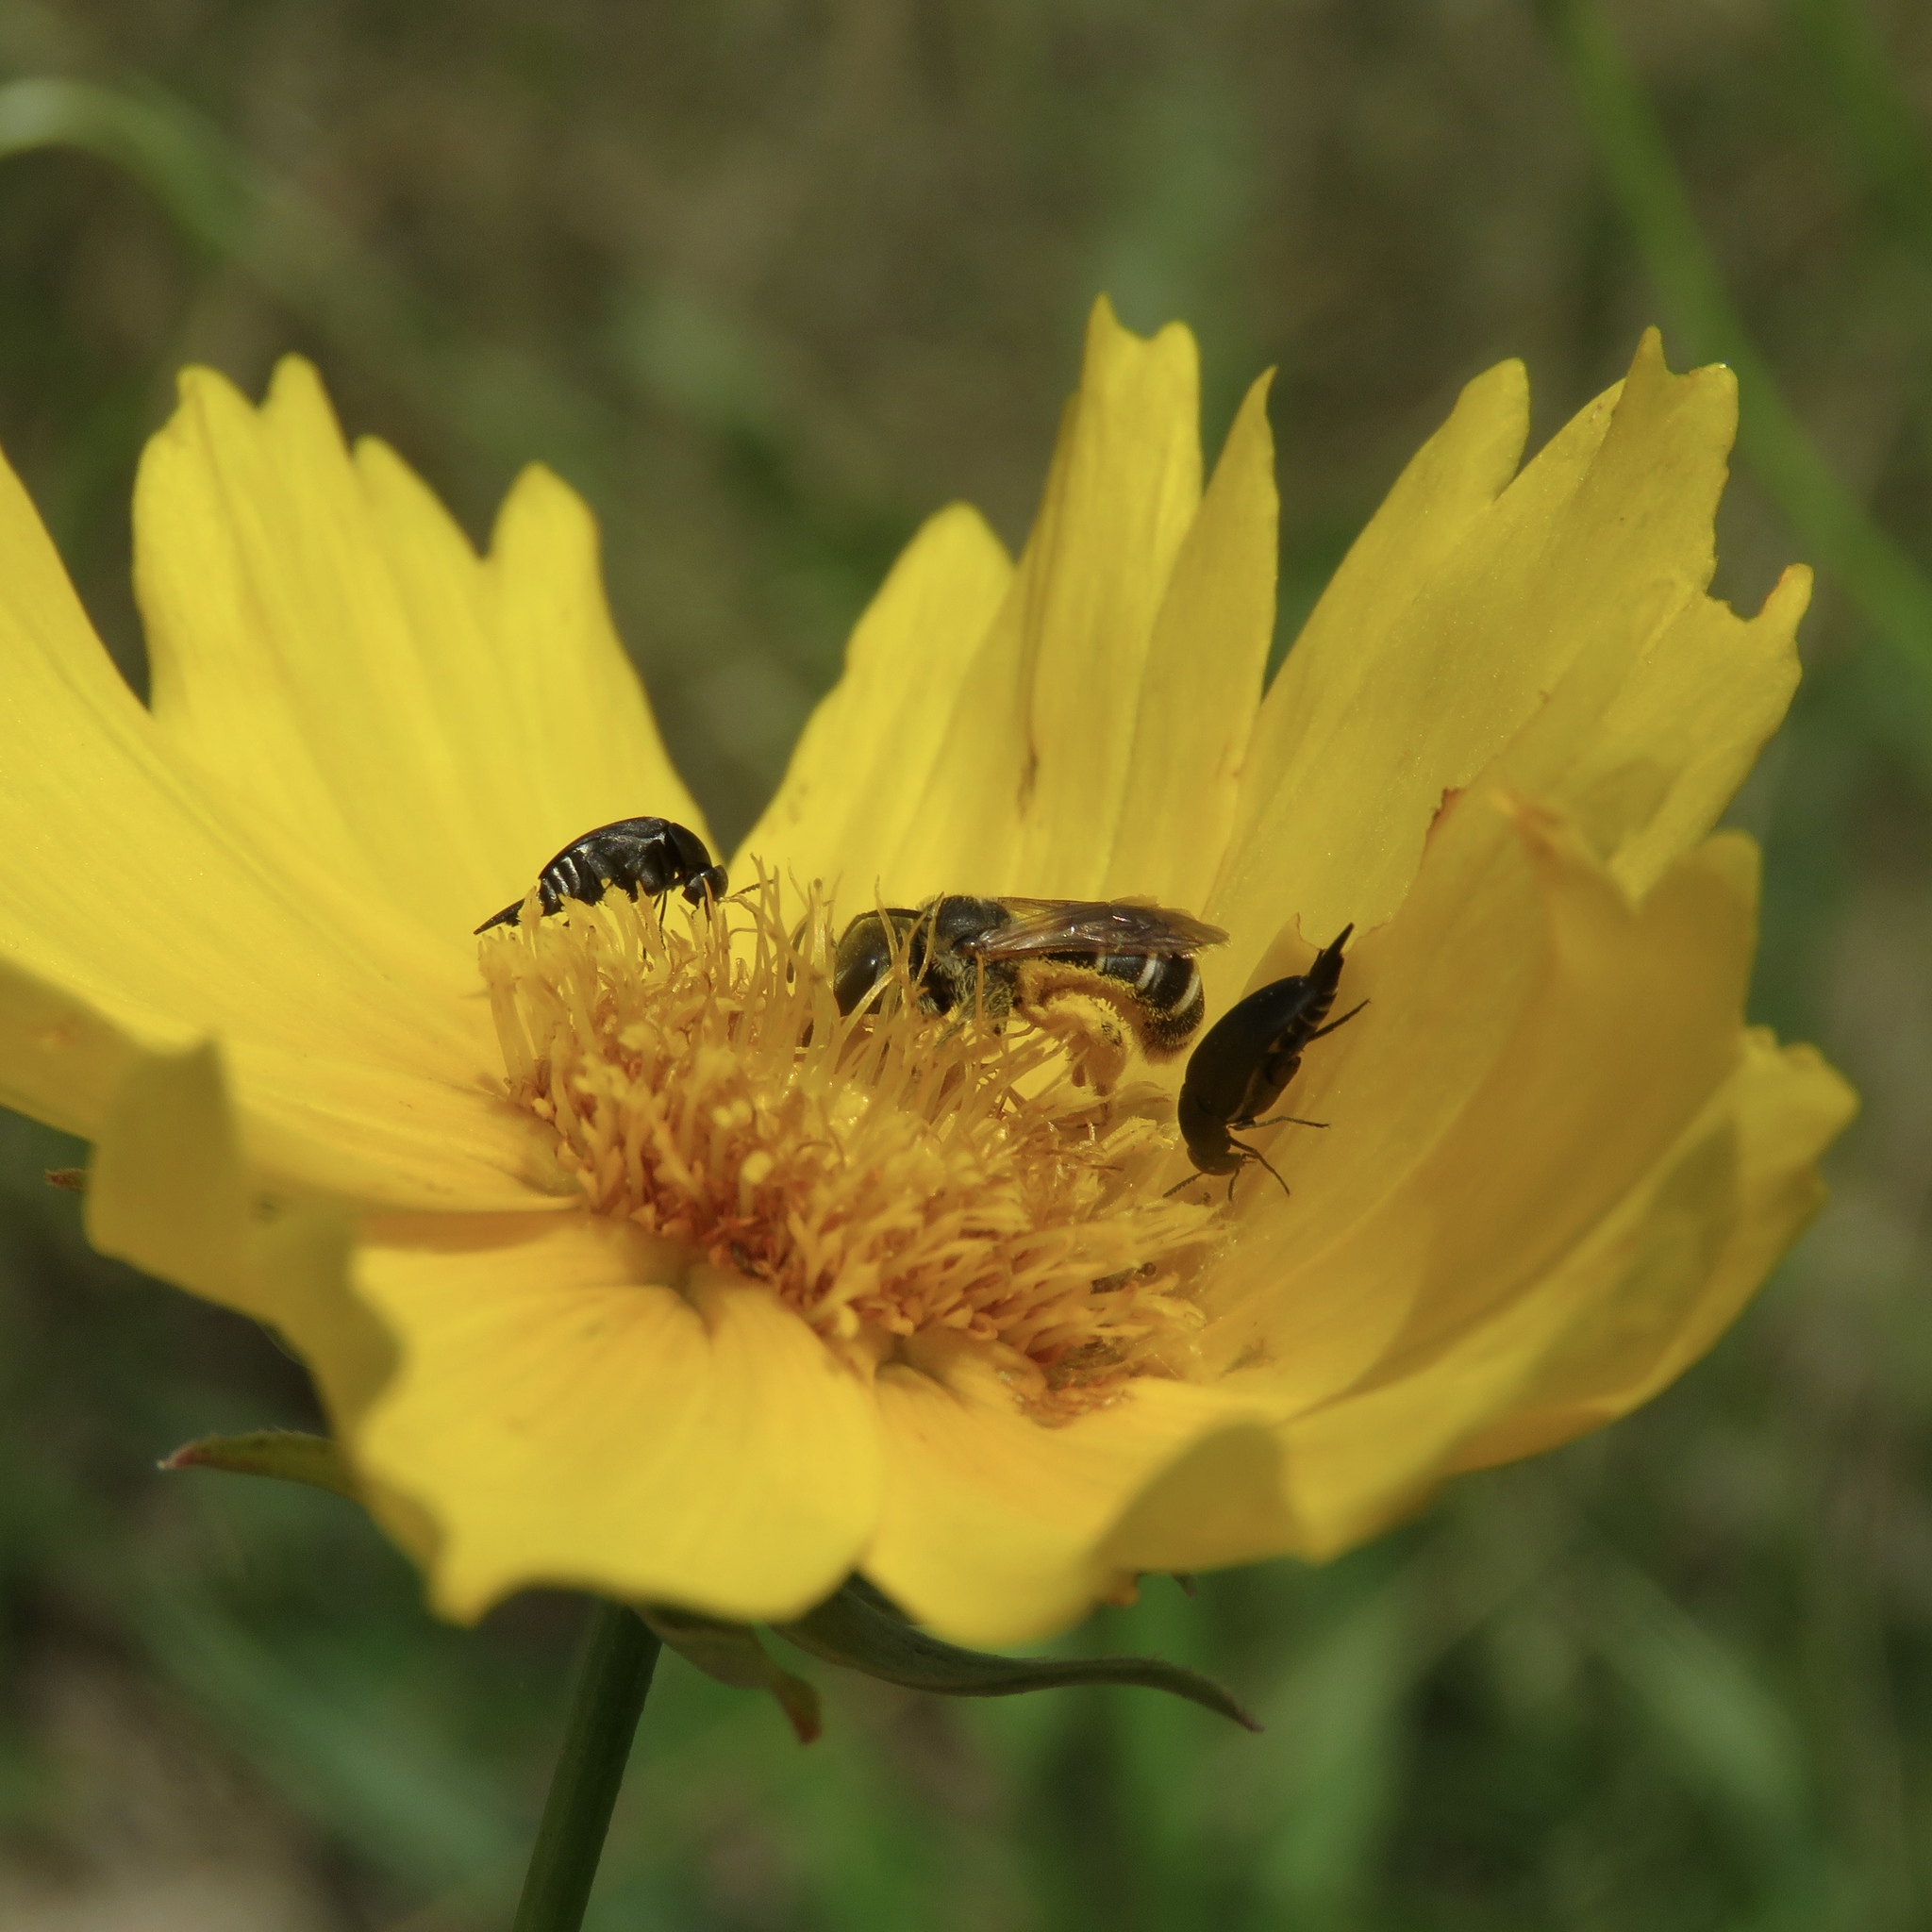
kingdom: Animalia
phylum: Arthropoda
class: Insecta
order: Hymenoptera
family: Halictidae
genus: Halictus
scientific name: Halictus ligatus
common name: Ligated furrow bee
